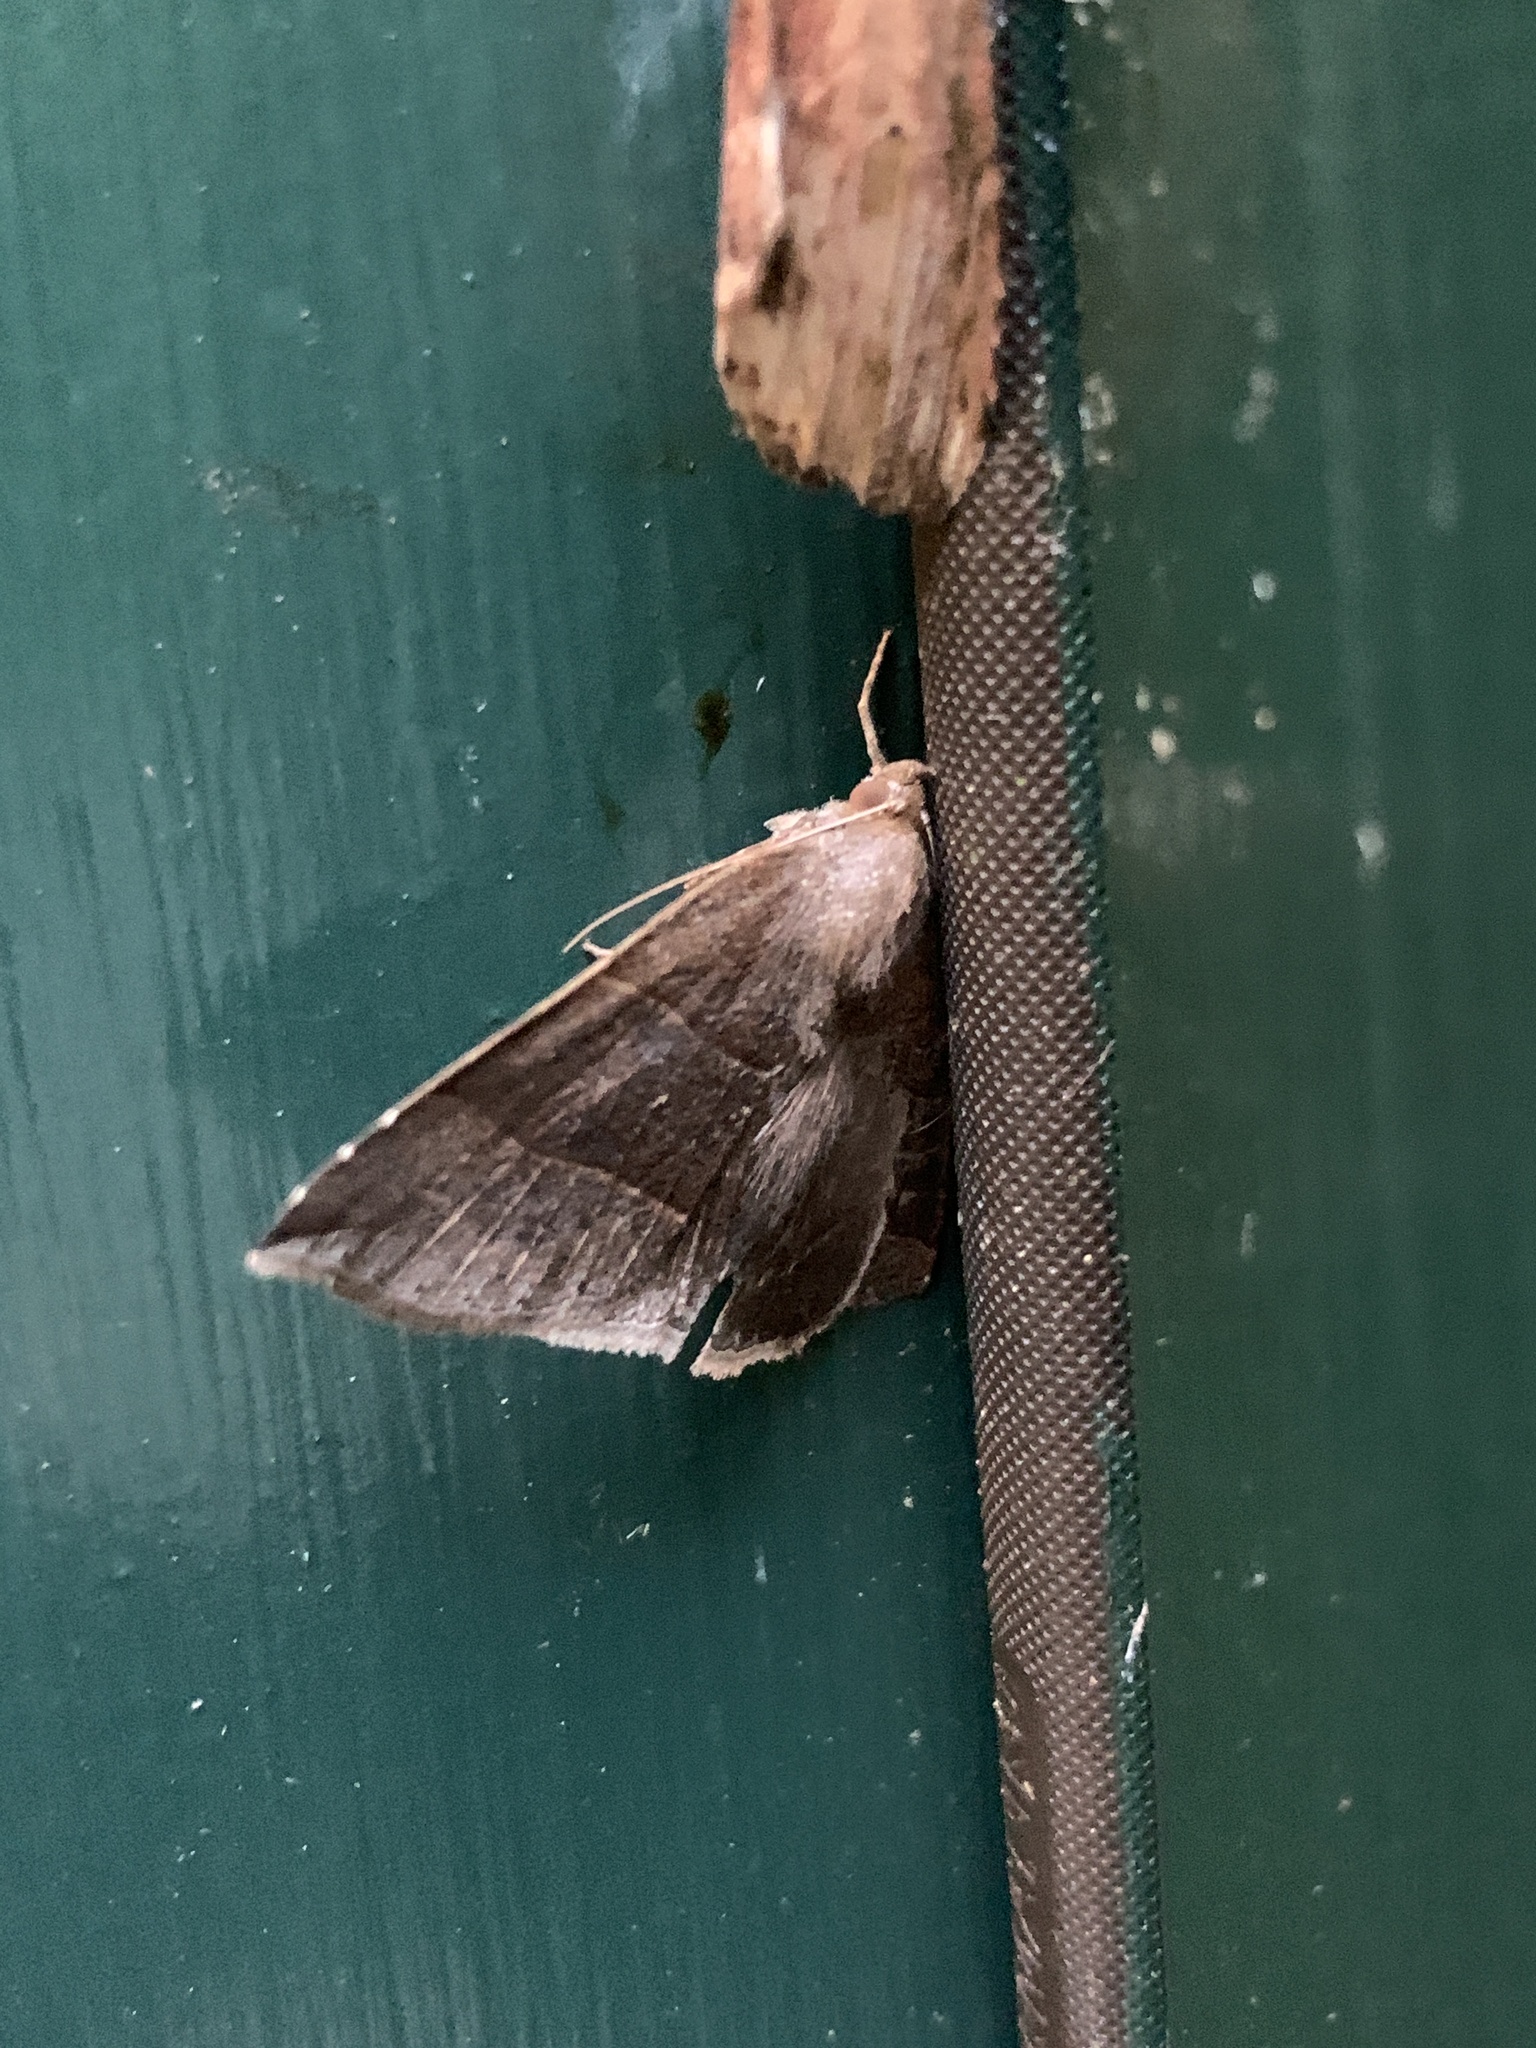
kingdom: Animalia
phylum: Arthropoda
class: Insecta
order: Lepidoptera
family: Erebidae
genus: Parallelia
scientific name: Parallelia bistriaris
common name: Maple looper moth
